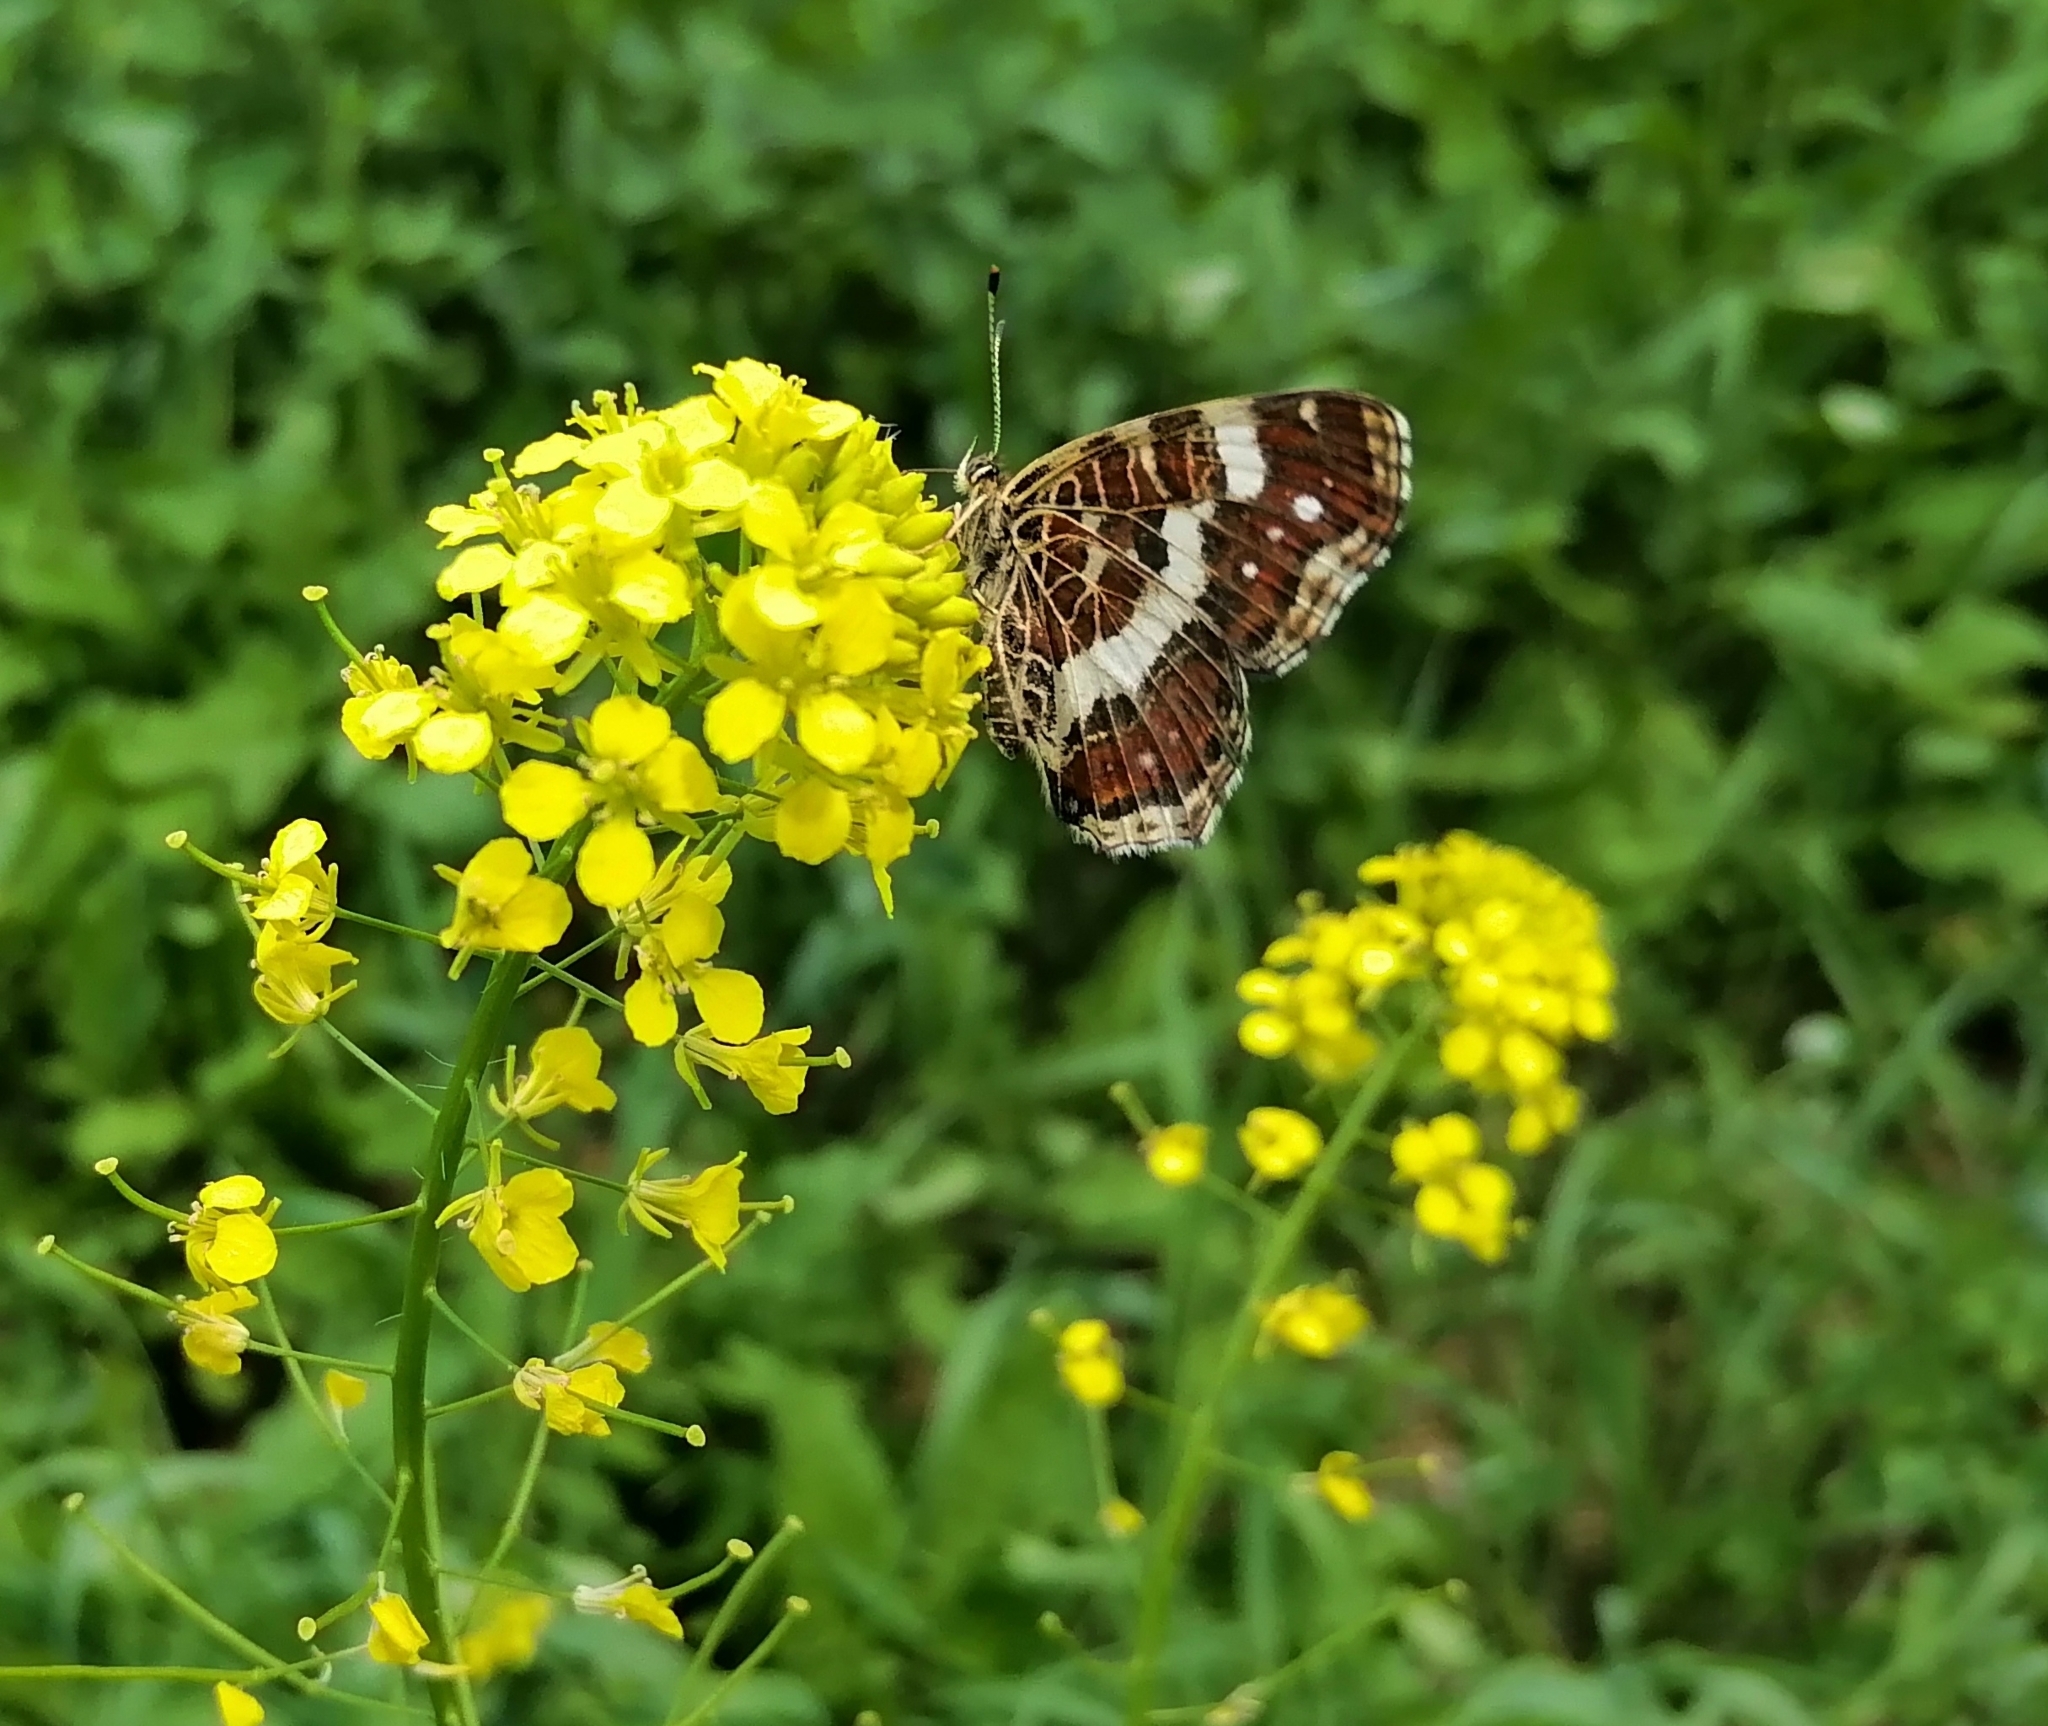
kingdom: Animalia
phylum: Arthropoda
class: Insecta
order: Lepidoptera
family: Nymphalidae
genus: Araschnia
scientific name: Araschnia levana
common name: Map butterfly
